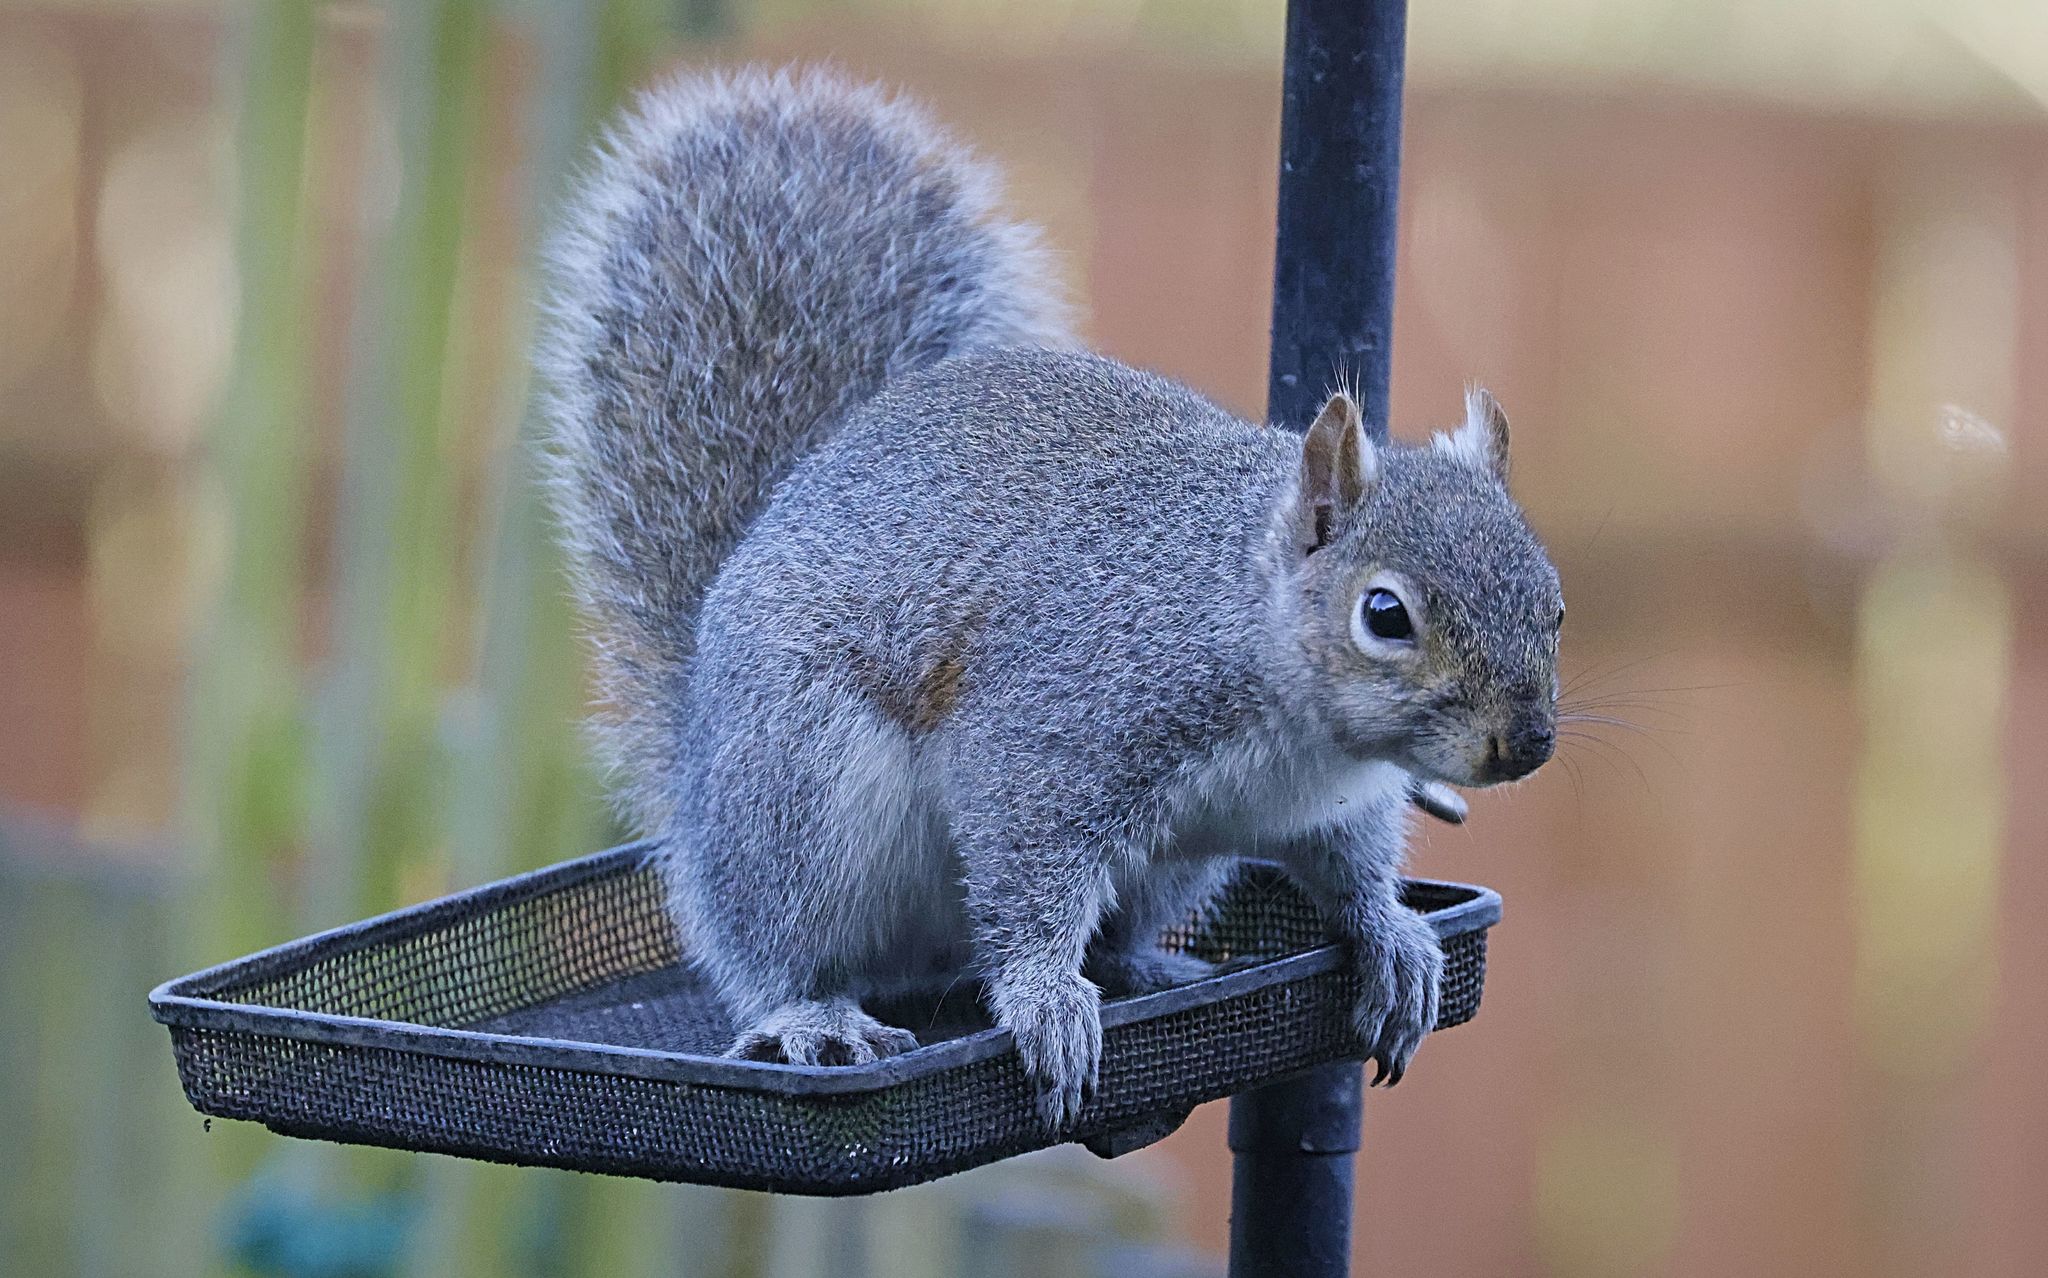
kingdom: Animalia
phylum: Chordata
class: Mammalia
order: Rodentia
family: Sciuridae
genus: Sciurus
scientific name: Sciurus carolinensis
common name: Eastern gray squirrel
